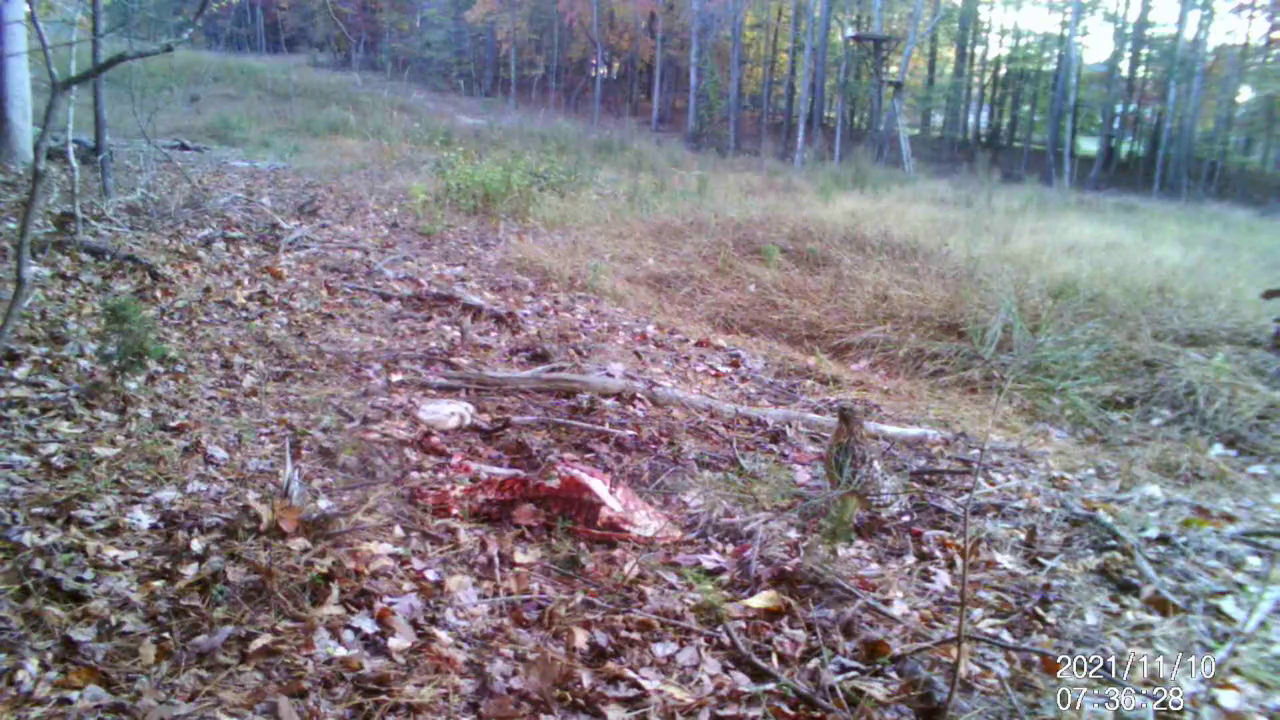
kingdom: Animalia
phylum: Chordata
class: Aves
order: Accipitriformes
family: Accipitridae
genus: Buteo
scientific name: Buteo lineatus
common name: Red-shouldered hawk
